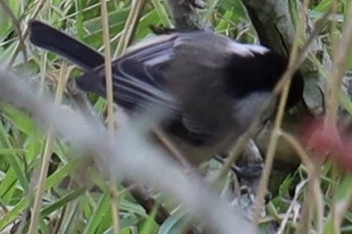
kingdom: Animalia
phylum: Chordata
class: Aves
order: Passeriformes
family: Paridae
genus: Poecile
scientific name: Poecile atricapillus
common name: Black-capped chickadee
